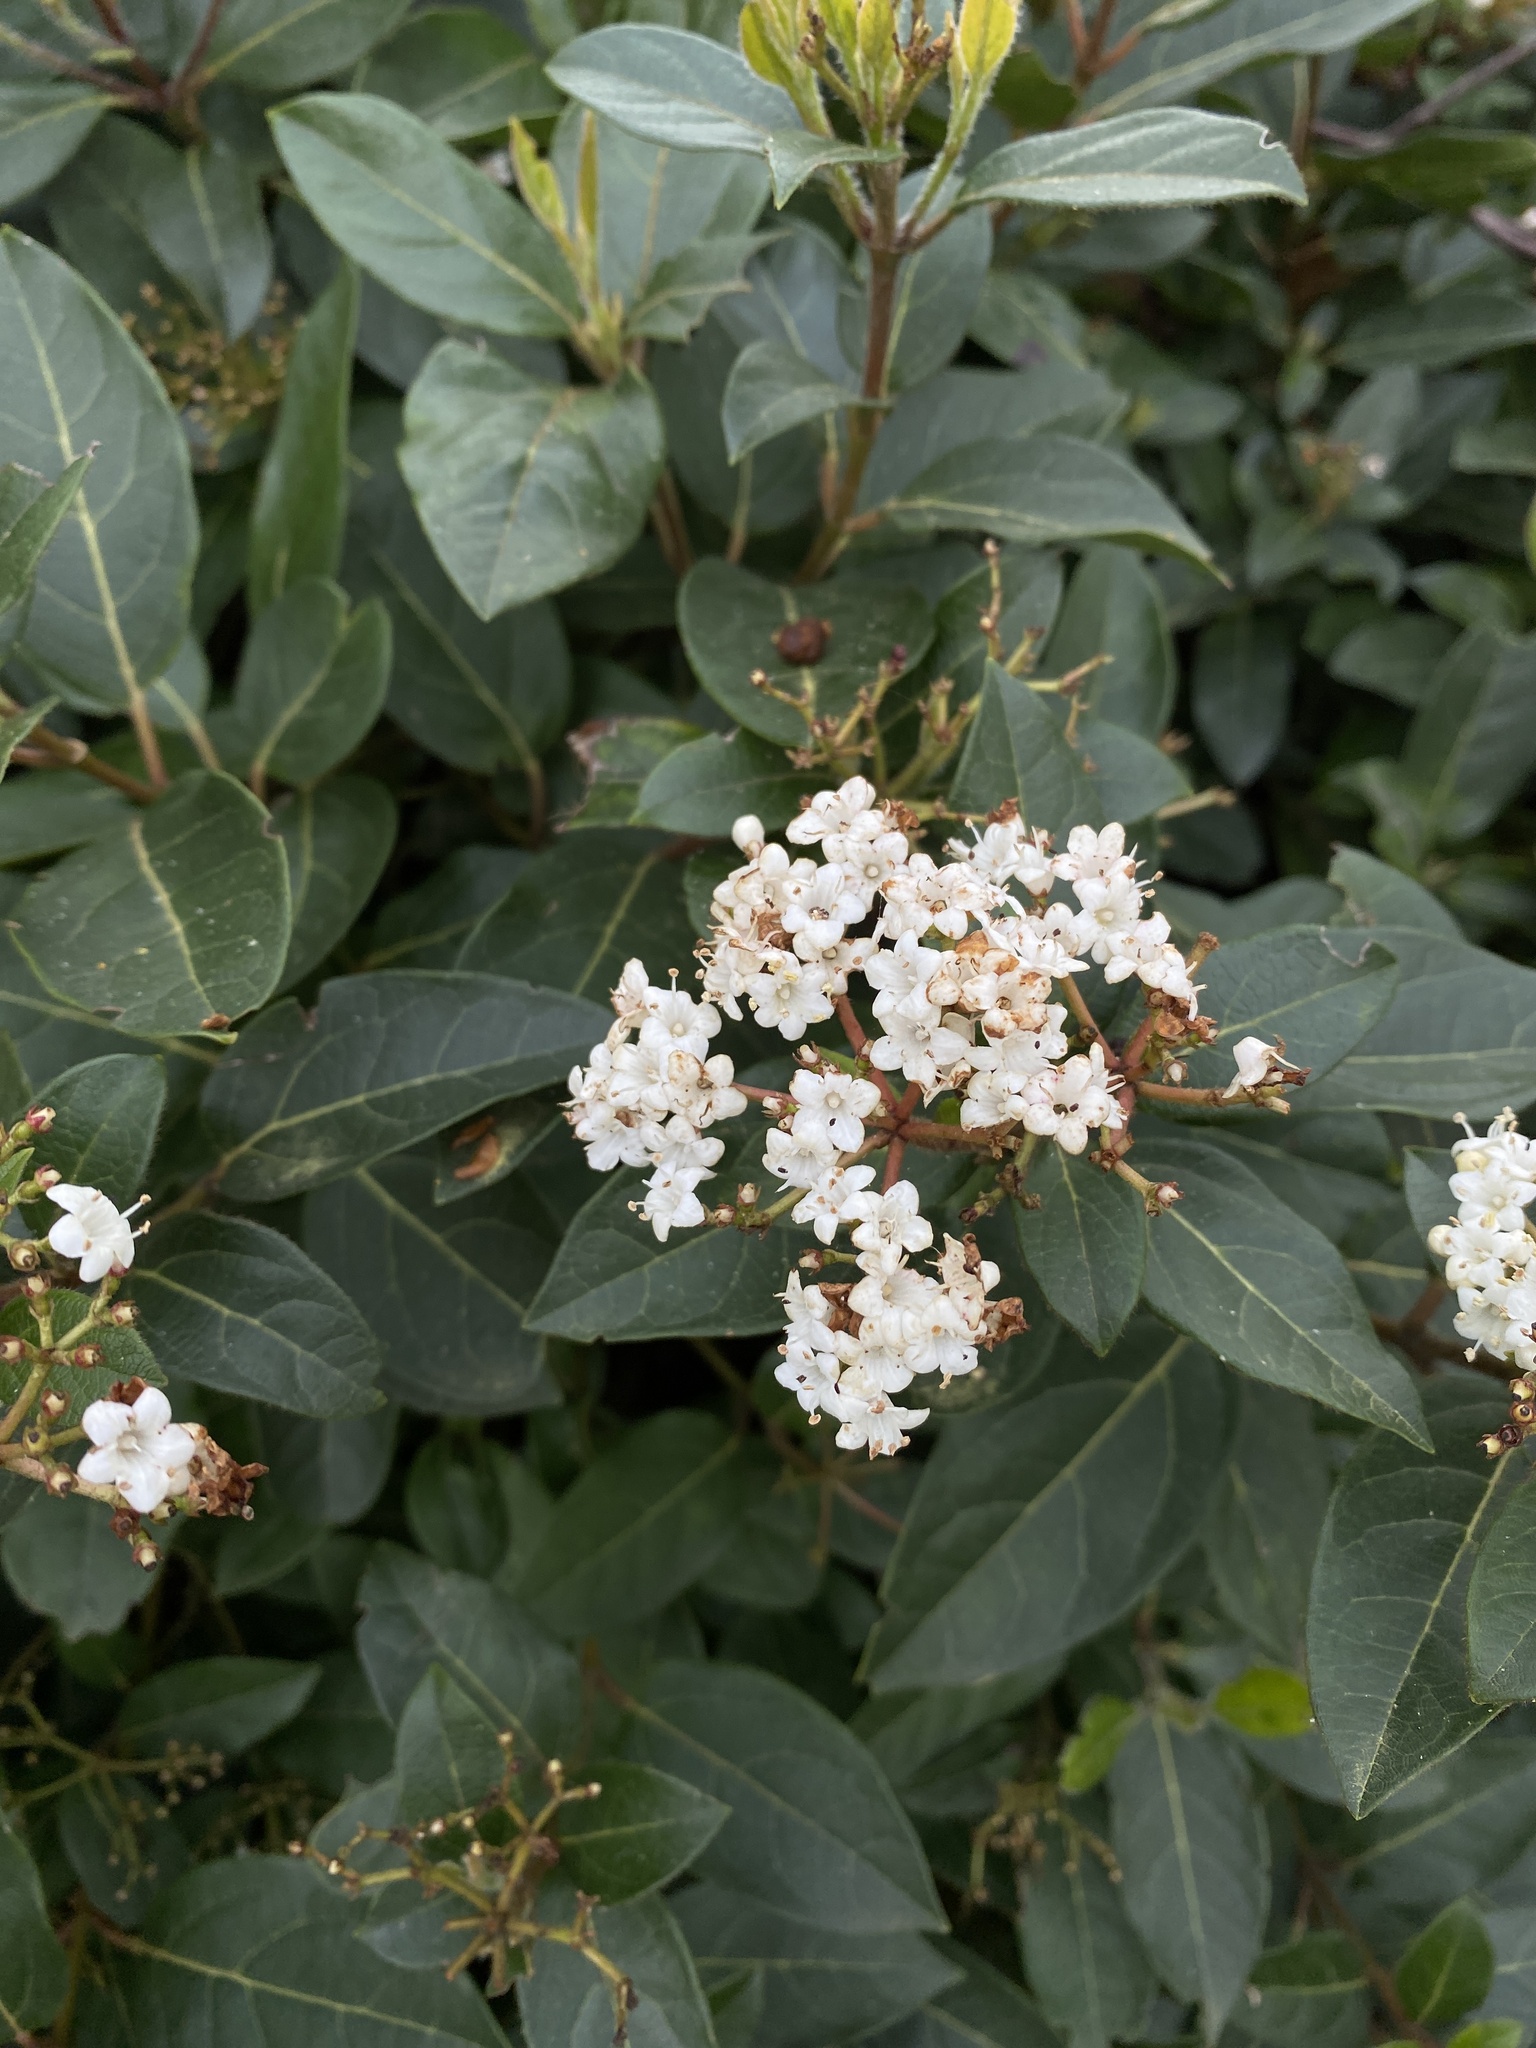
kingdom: Plantae
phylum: Tracheophyta
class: Magnoliopsida
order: Dipsacales
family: Viburnaceae
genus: Viburnum
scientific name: Viburnum tinus
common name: Laurustinus
